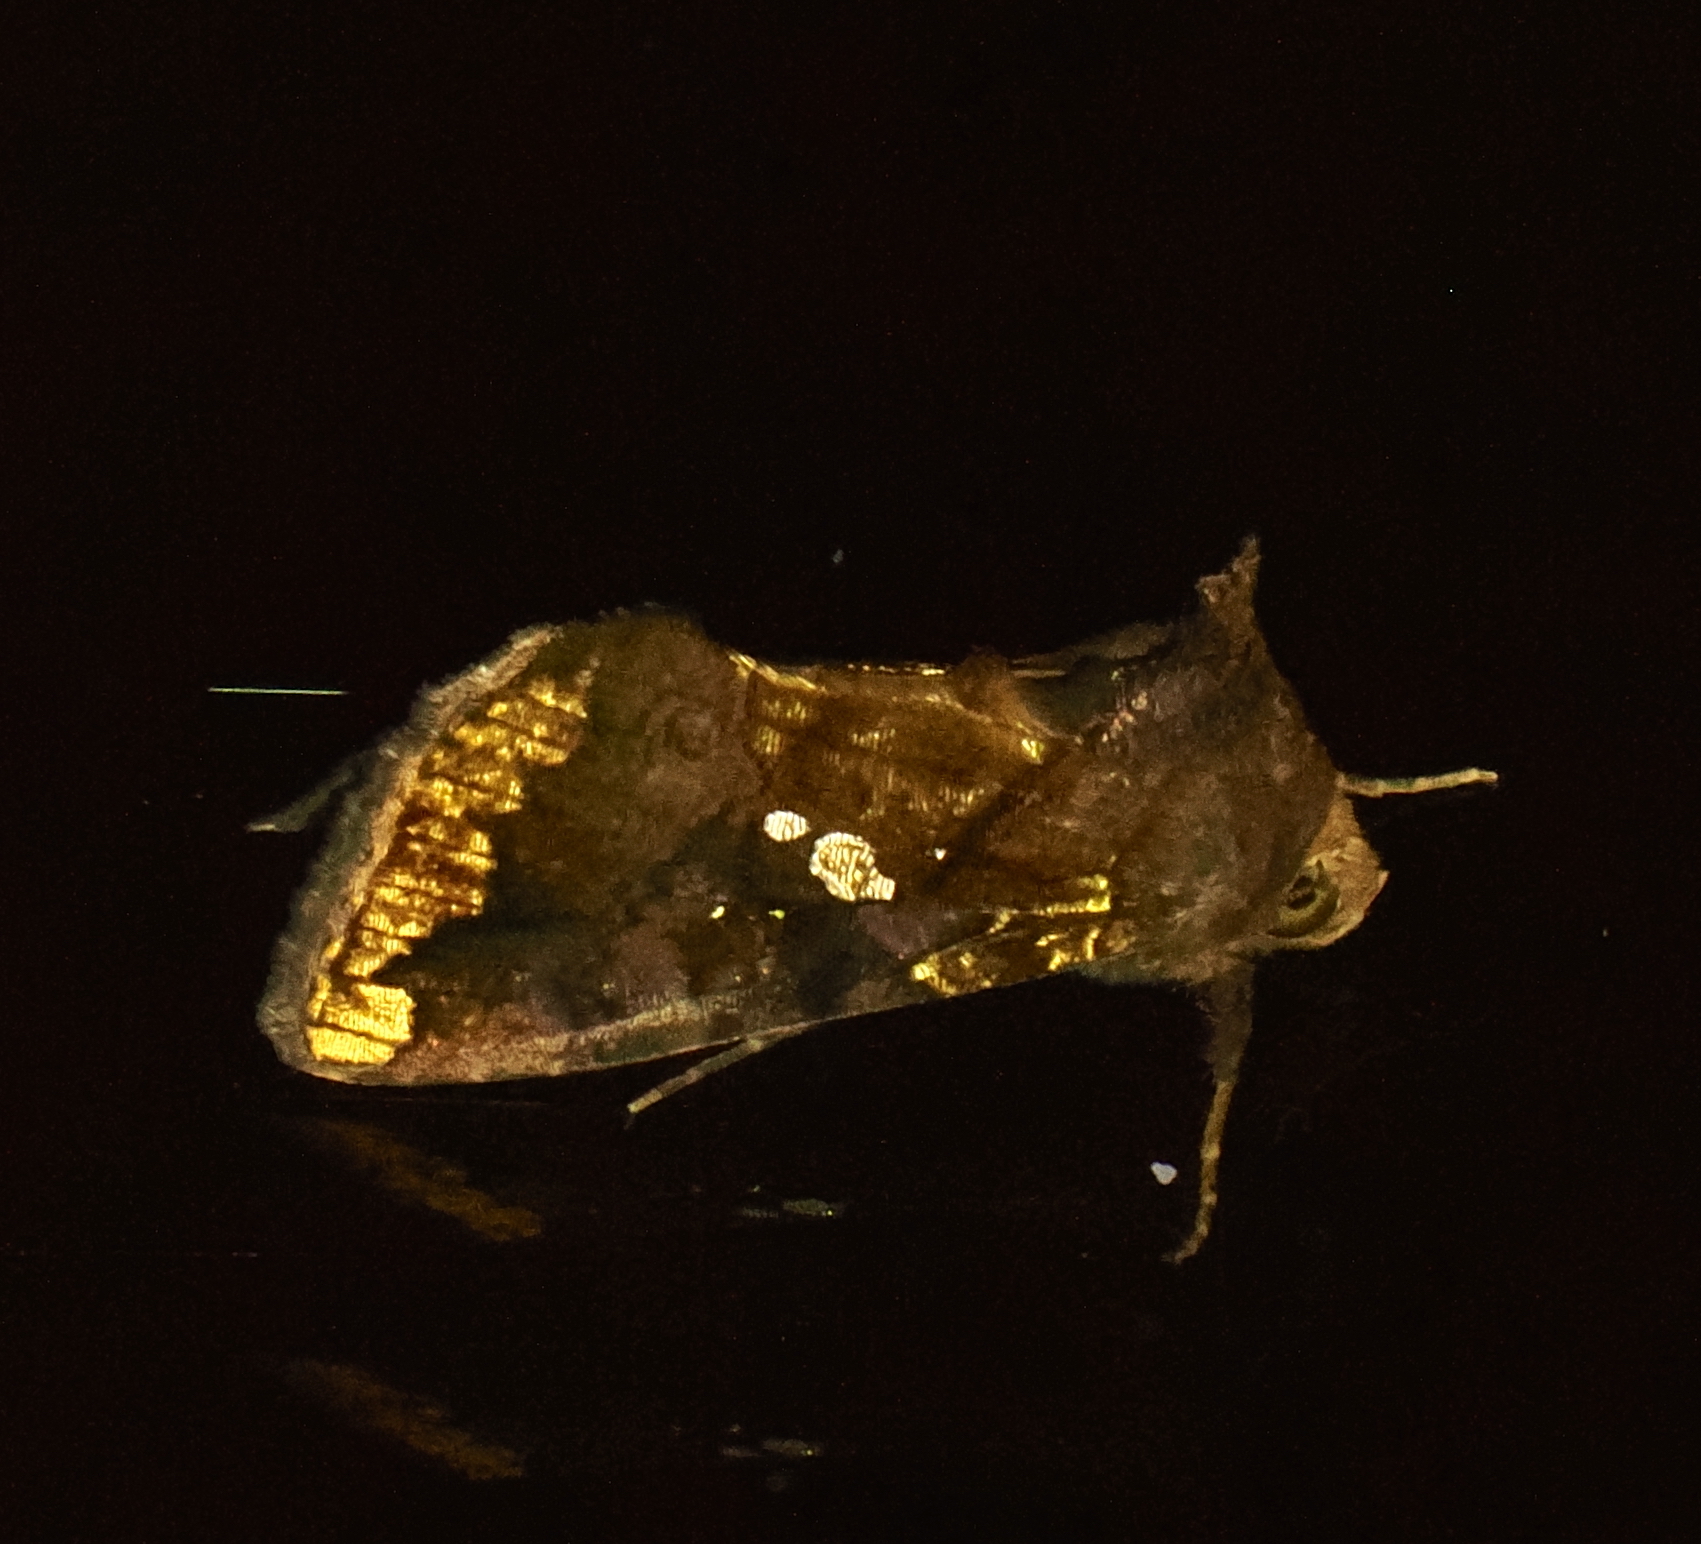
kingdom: Animalia
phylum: Arthropoda
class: Insecta
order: Lepidoptera
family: Noctuidae
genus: Argyrogramma
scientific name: Argyrogramma verruca
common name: Golden looper moth
